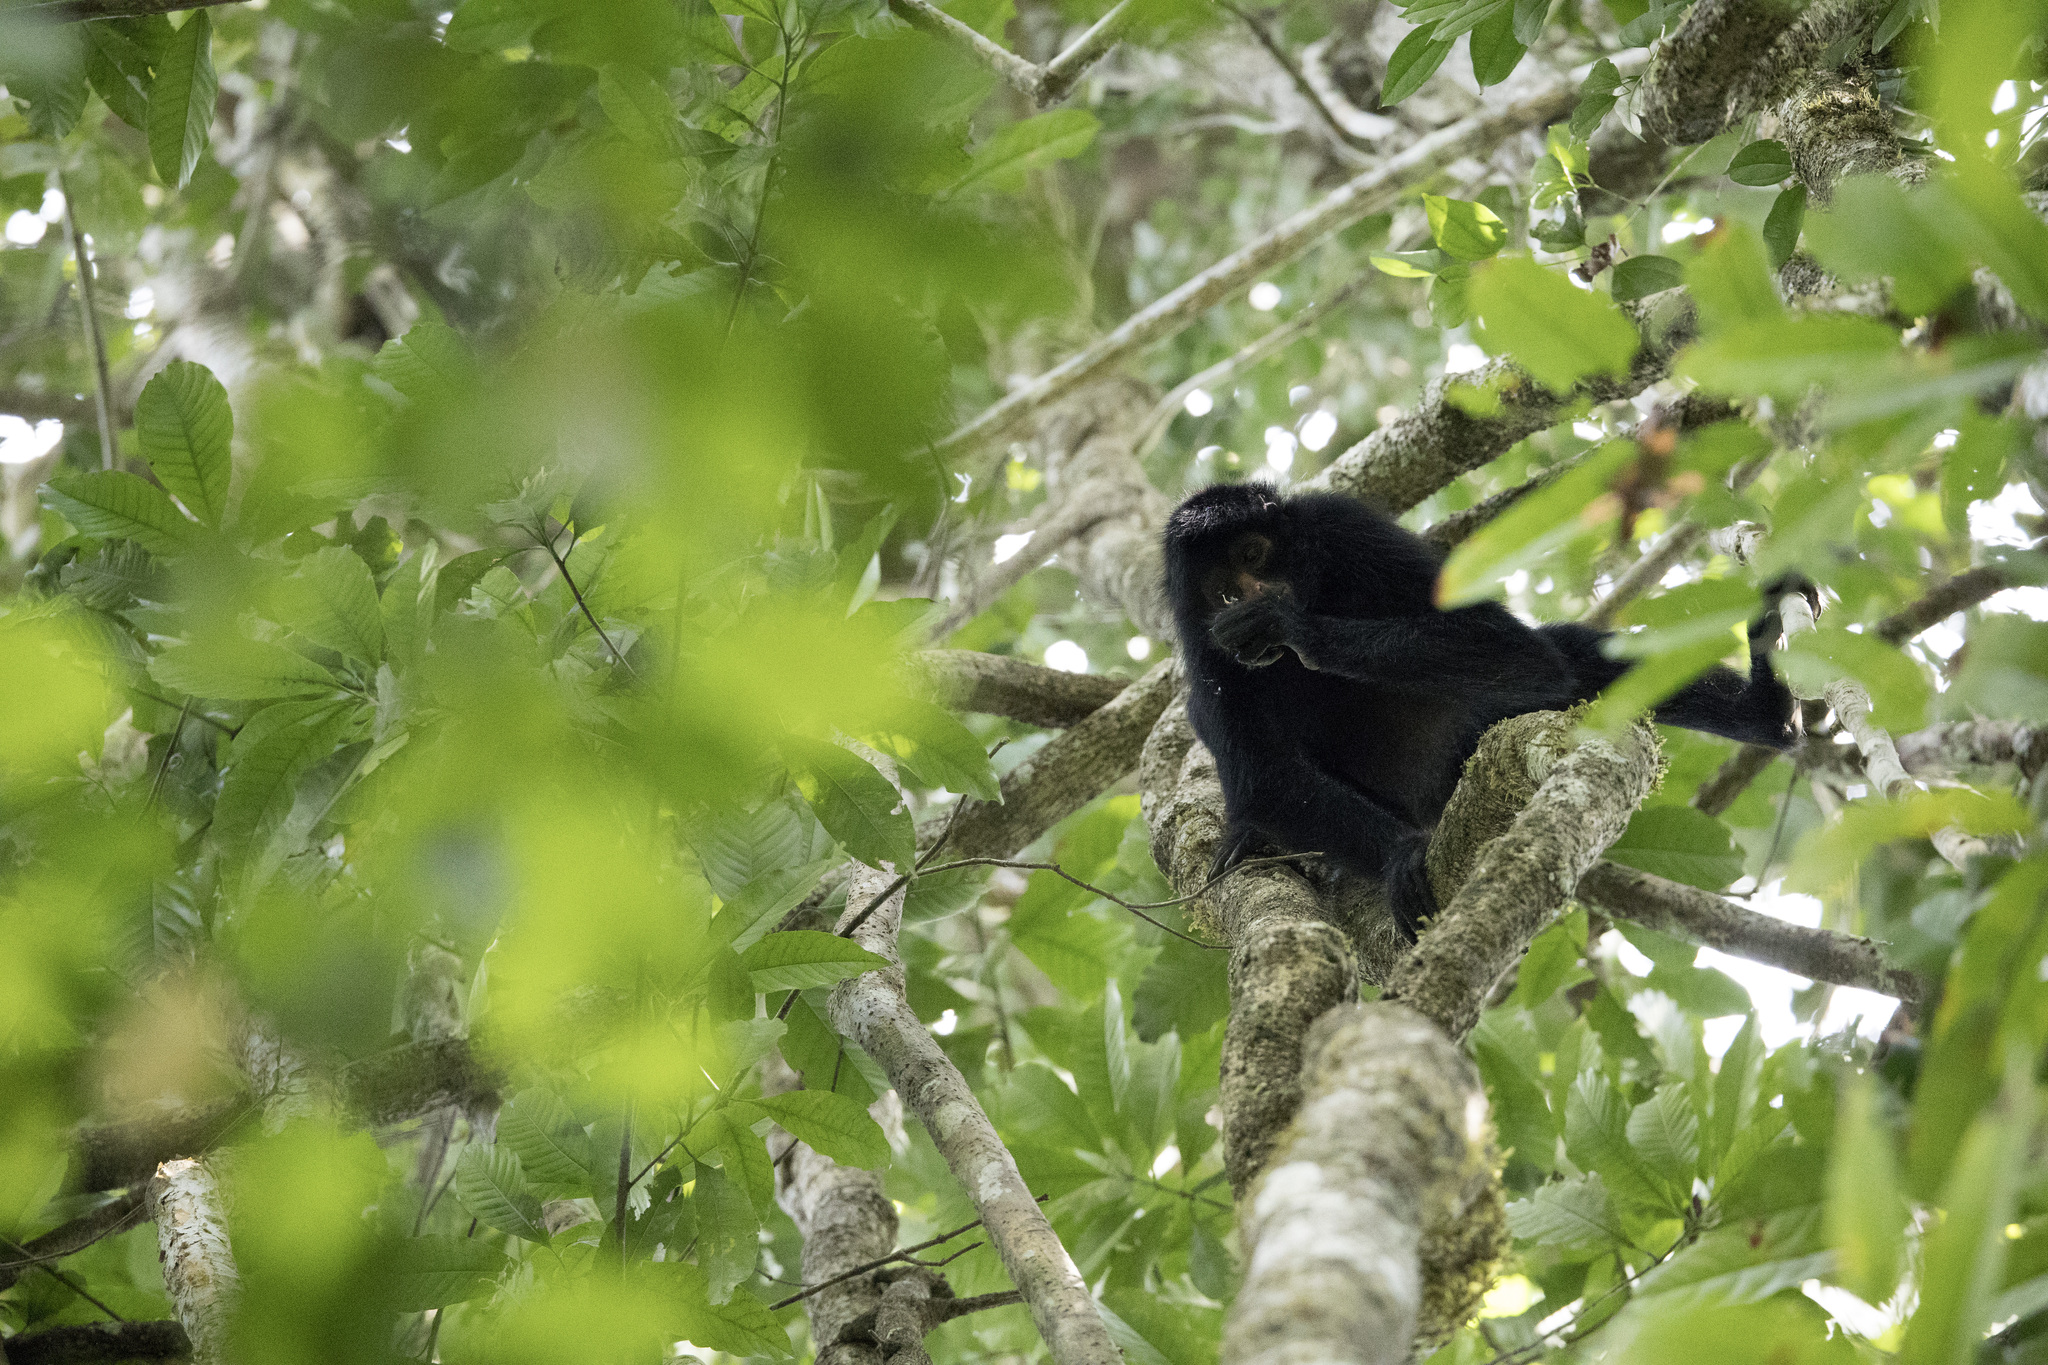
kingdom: Animalia
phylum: Chordata
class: Mammalia
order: Primates
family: Atelidae
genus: Ateles
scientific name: Ateles chamek
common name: Peruvian spider monkey
